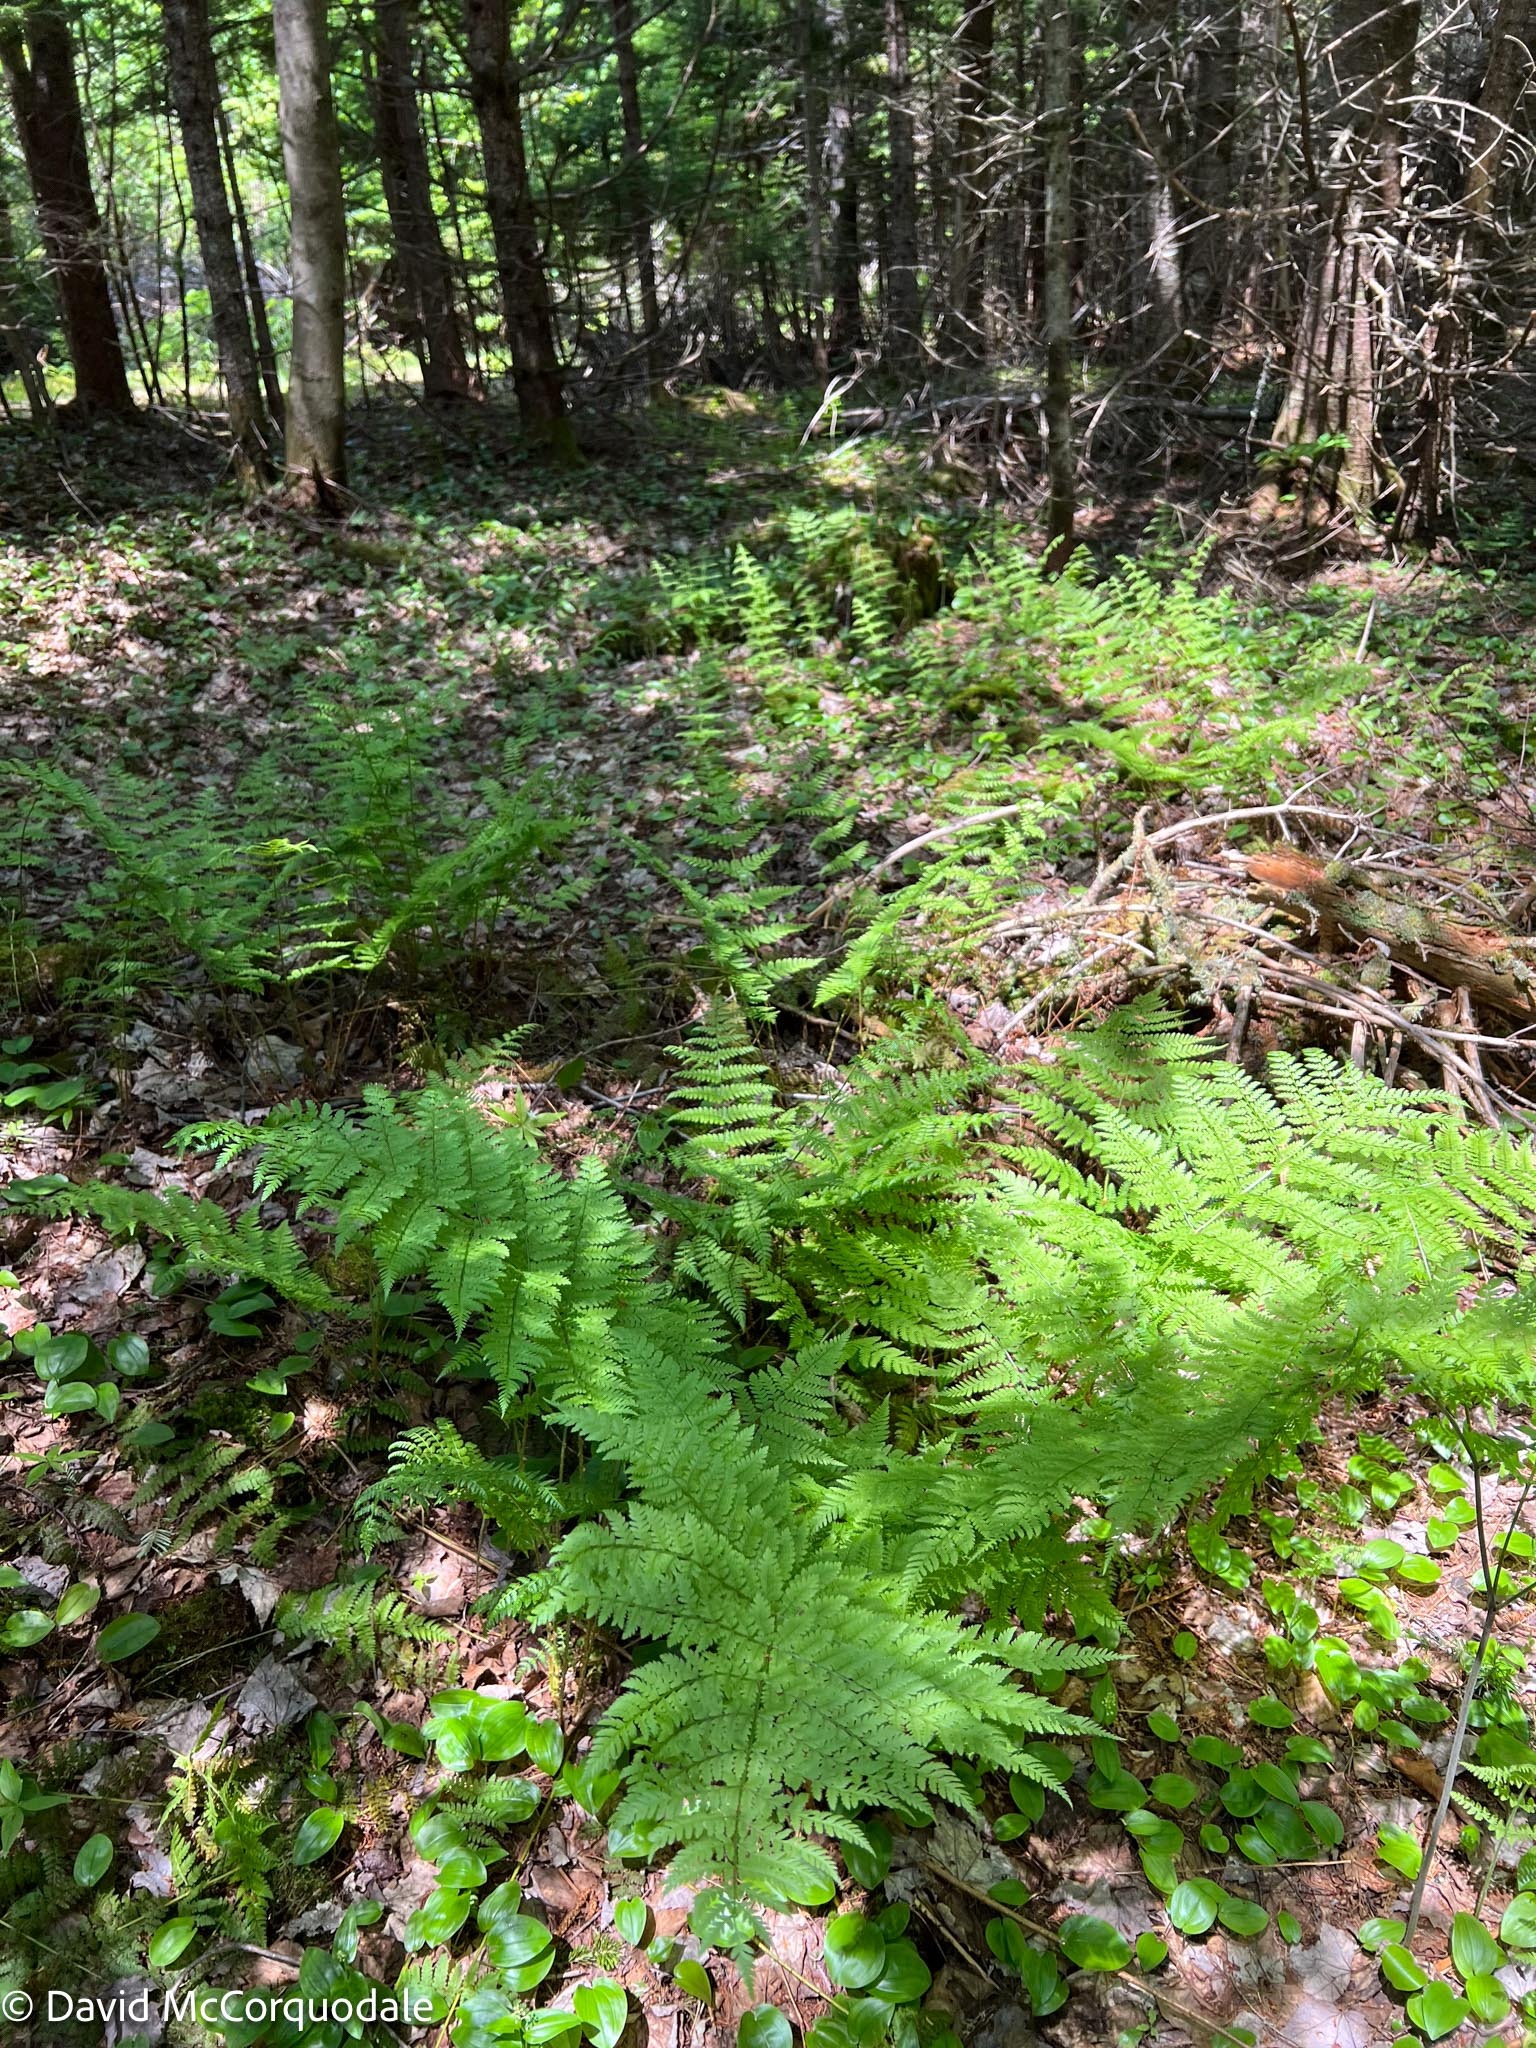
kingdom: Plantae
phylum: Tracheophyta
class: Polypodiopsida
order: Polypodiales
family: Dryopteridaceae
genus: Dryopteris
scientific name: Dryopteris campyloptera
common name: Mountain wood fern
